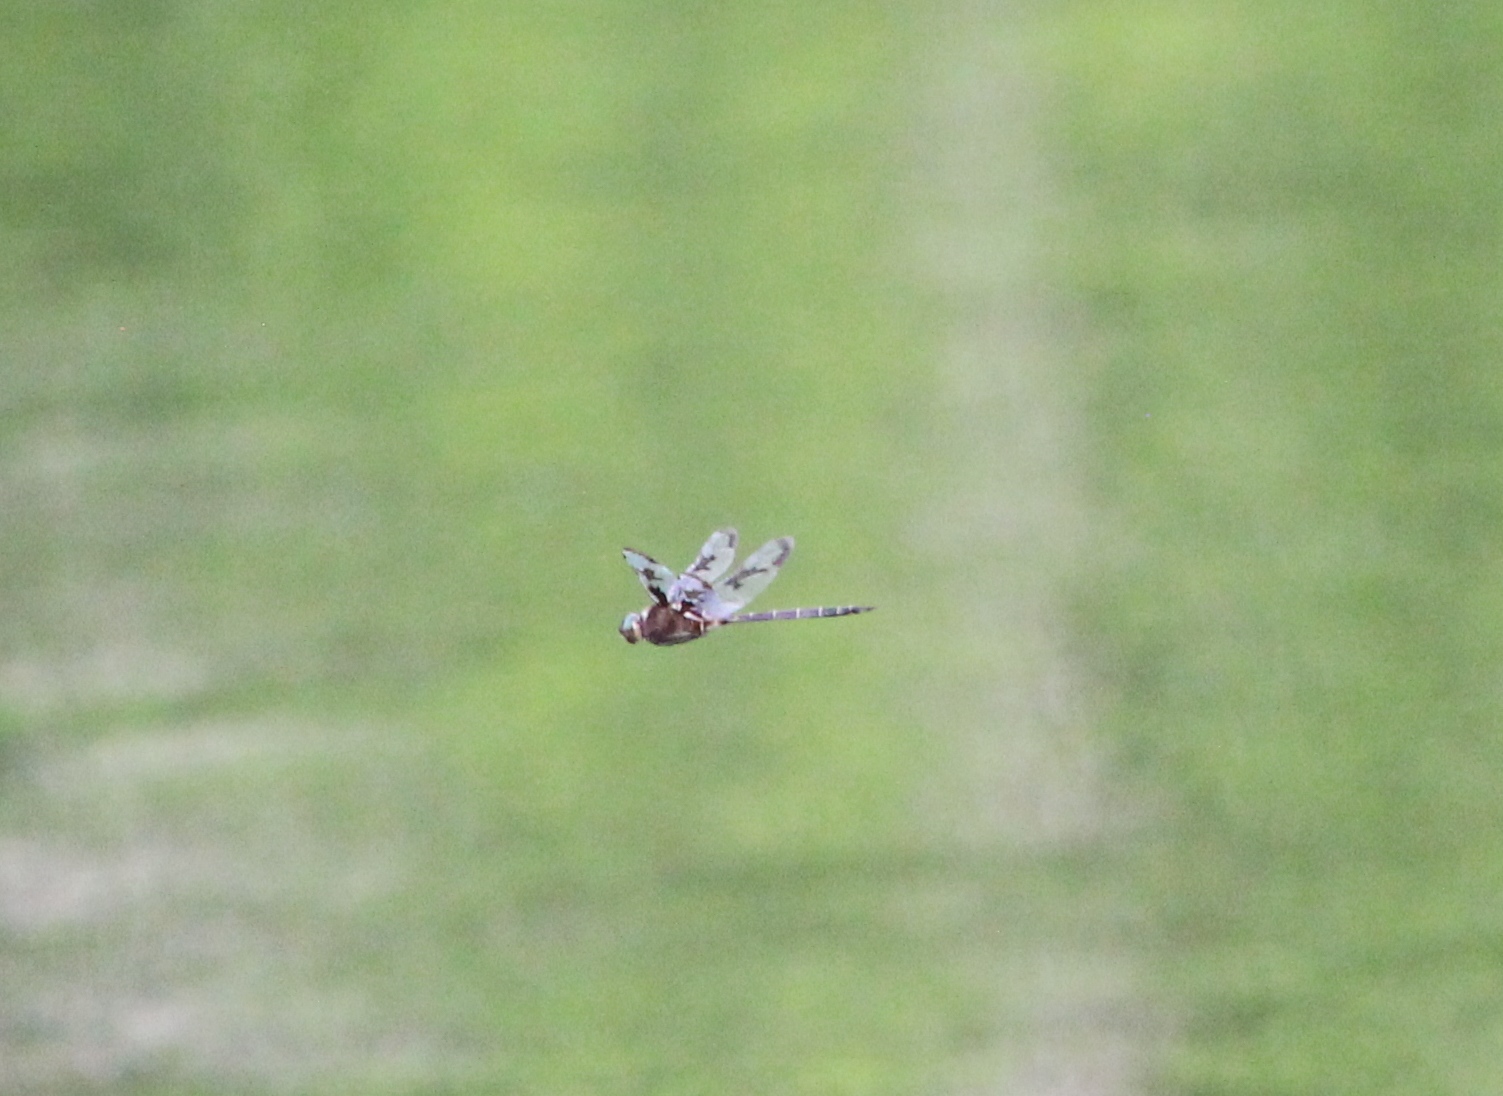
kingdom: Animalia
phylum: Arthropoda
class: Insecta
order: Odonata
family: Corduliidae
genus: Epitheca
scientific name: Epitheca princeps
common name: Prince baskettail
